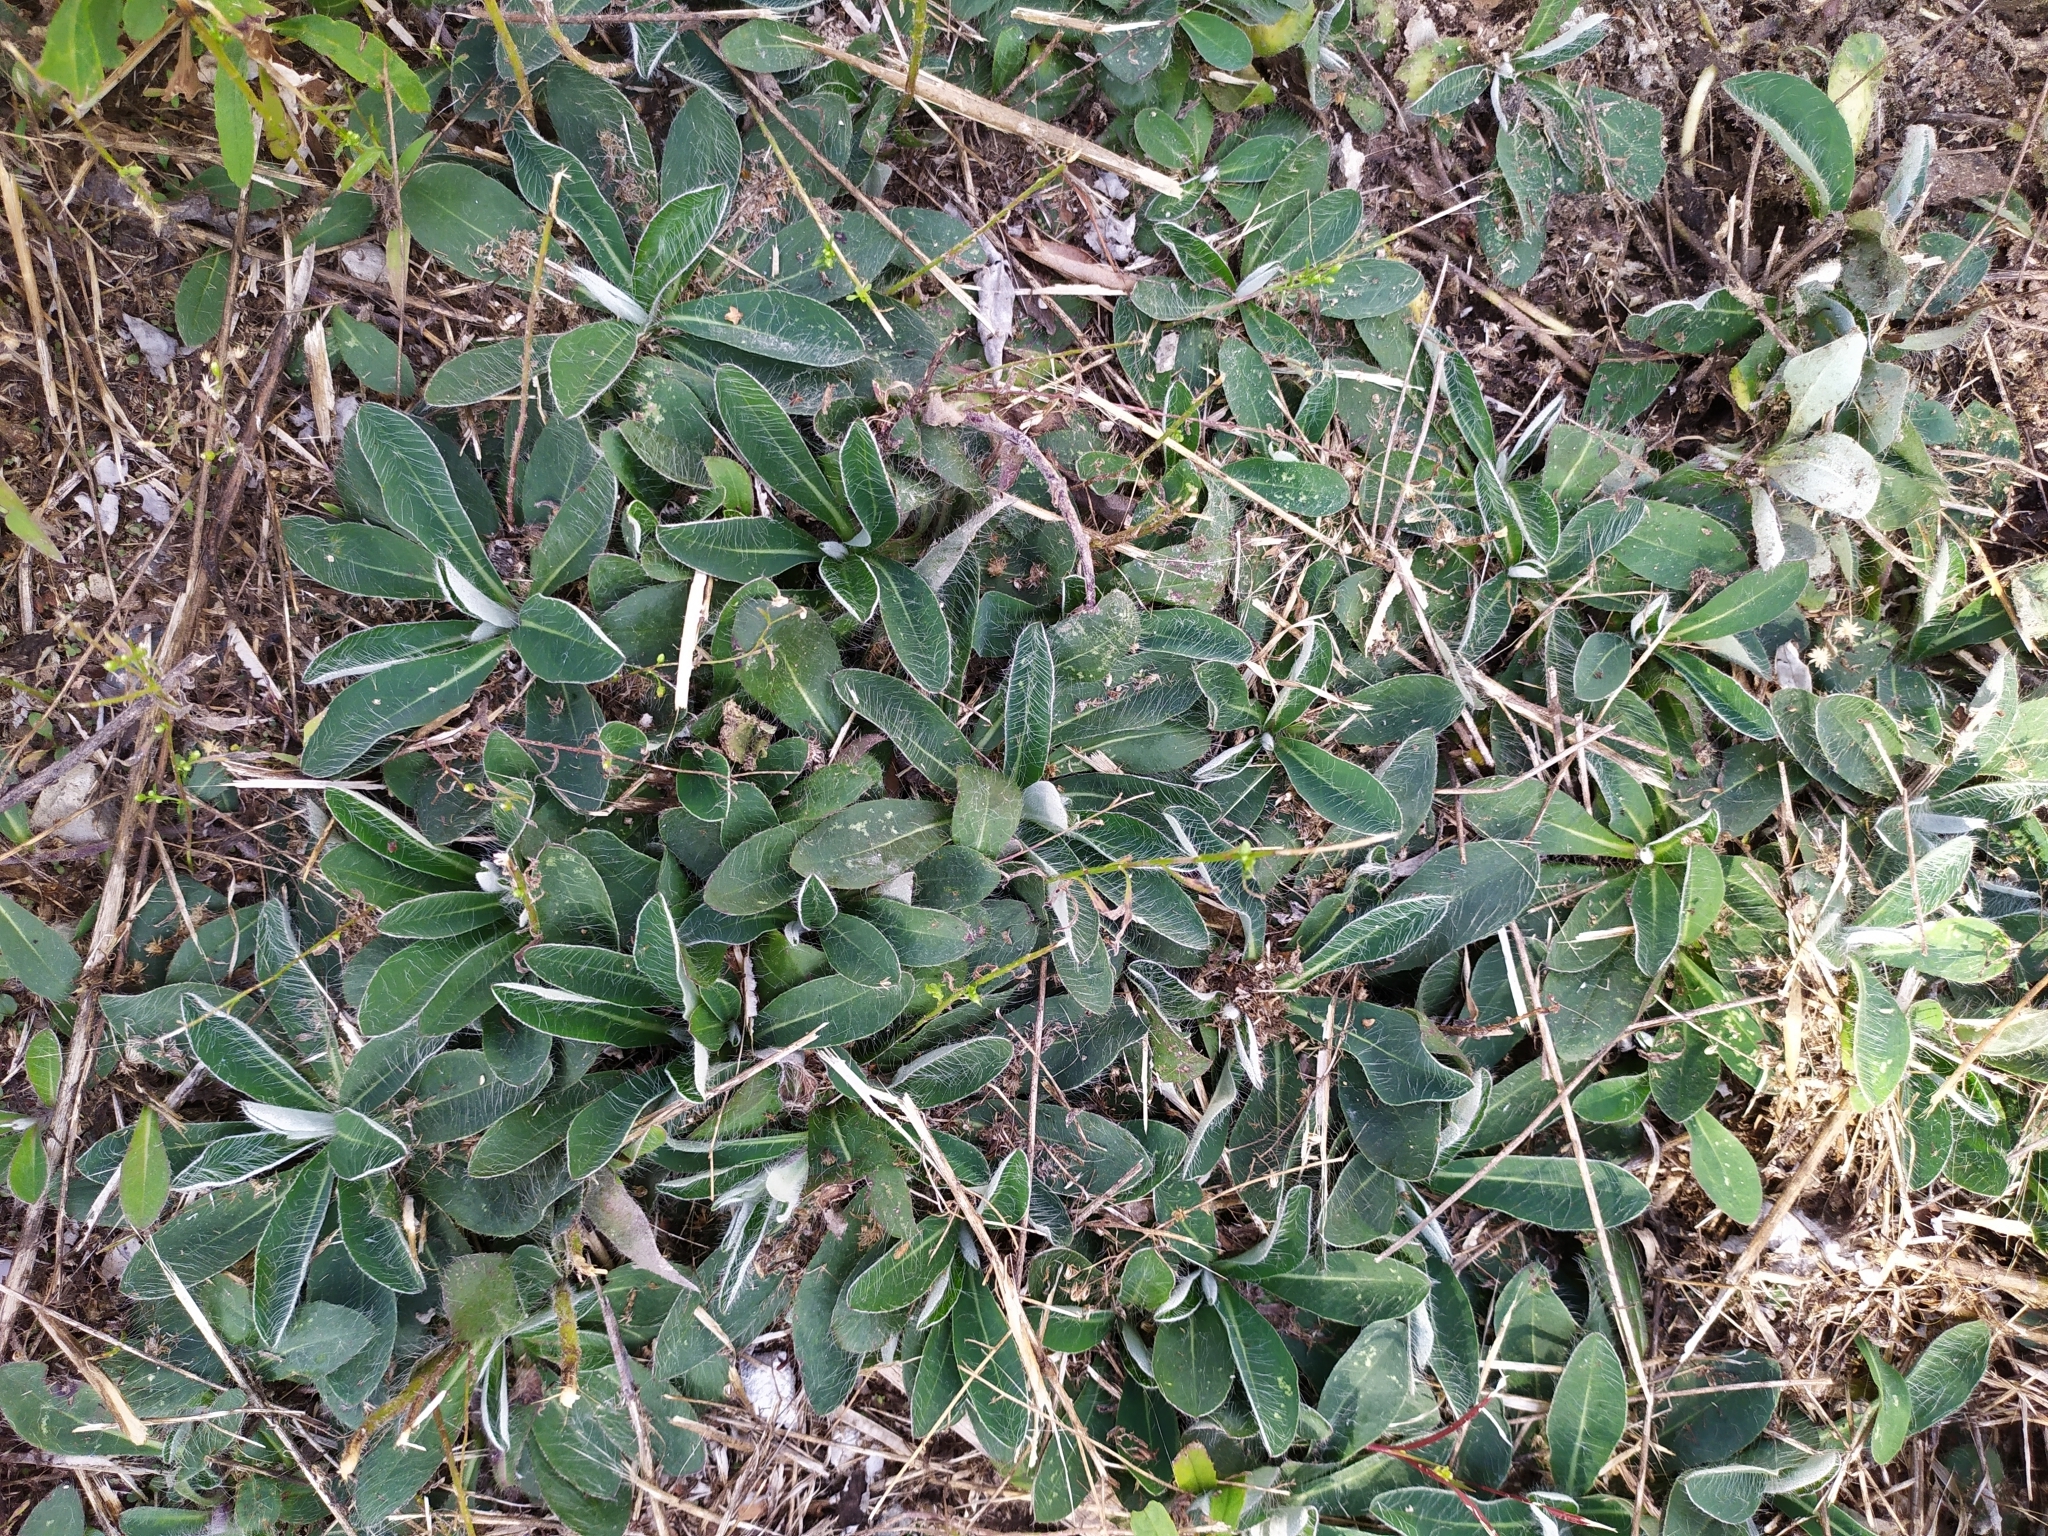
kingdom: Plantae
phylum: Tracheophyta
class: Magnoliopsida
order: Asterales
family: Asteraceae
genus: Pilosella
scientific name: Pilosella officinarum
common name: Mouse-ear hawkweed
